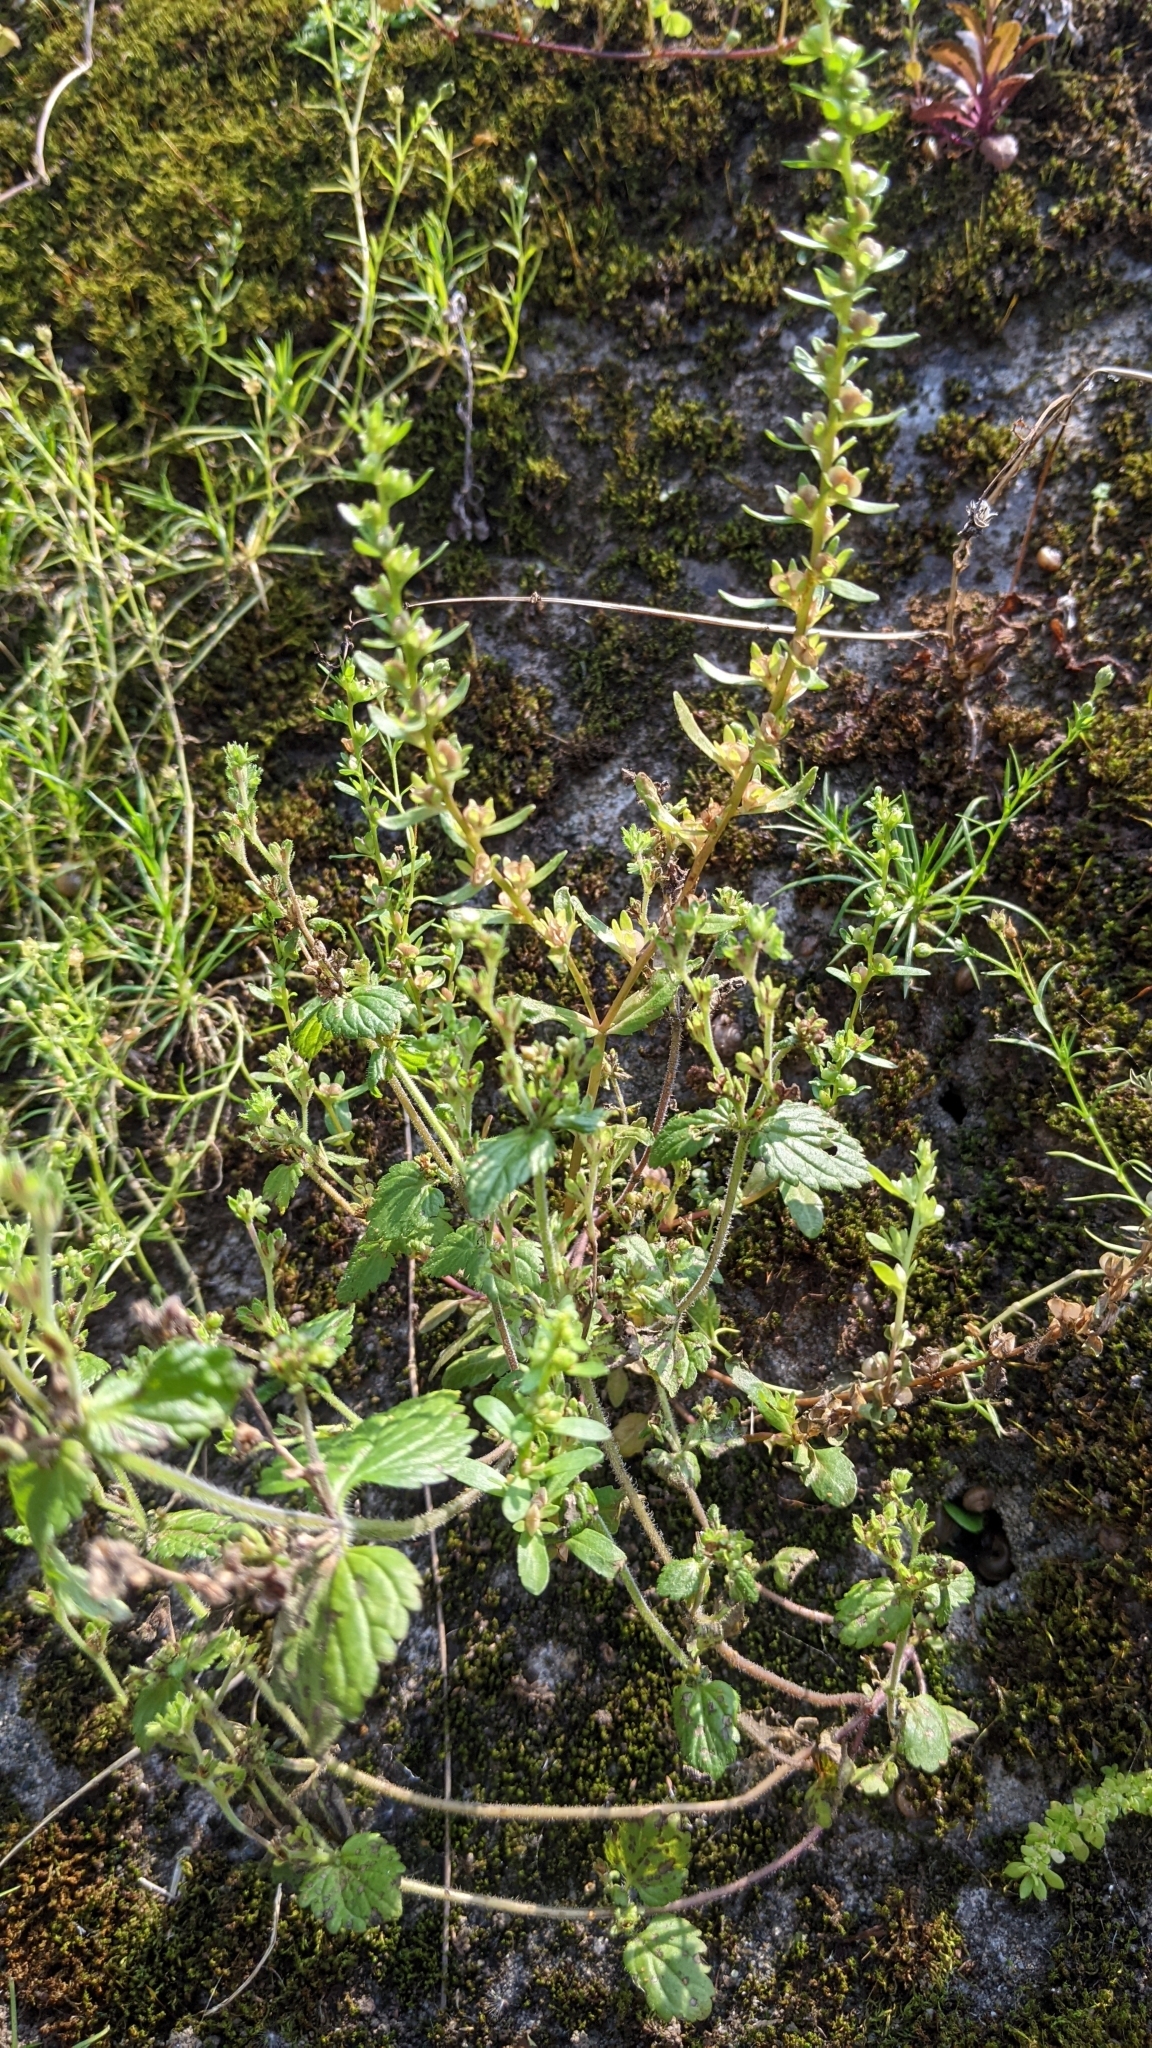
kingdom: Plantae
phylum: Tracheophyta
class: Magnoliopsida
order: Lamiales
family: Plantaginaceae
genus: Veronica
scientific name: Veronica peregrina
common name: Neckweed
